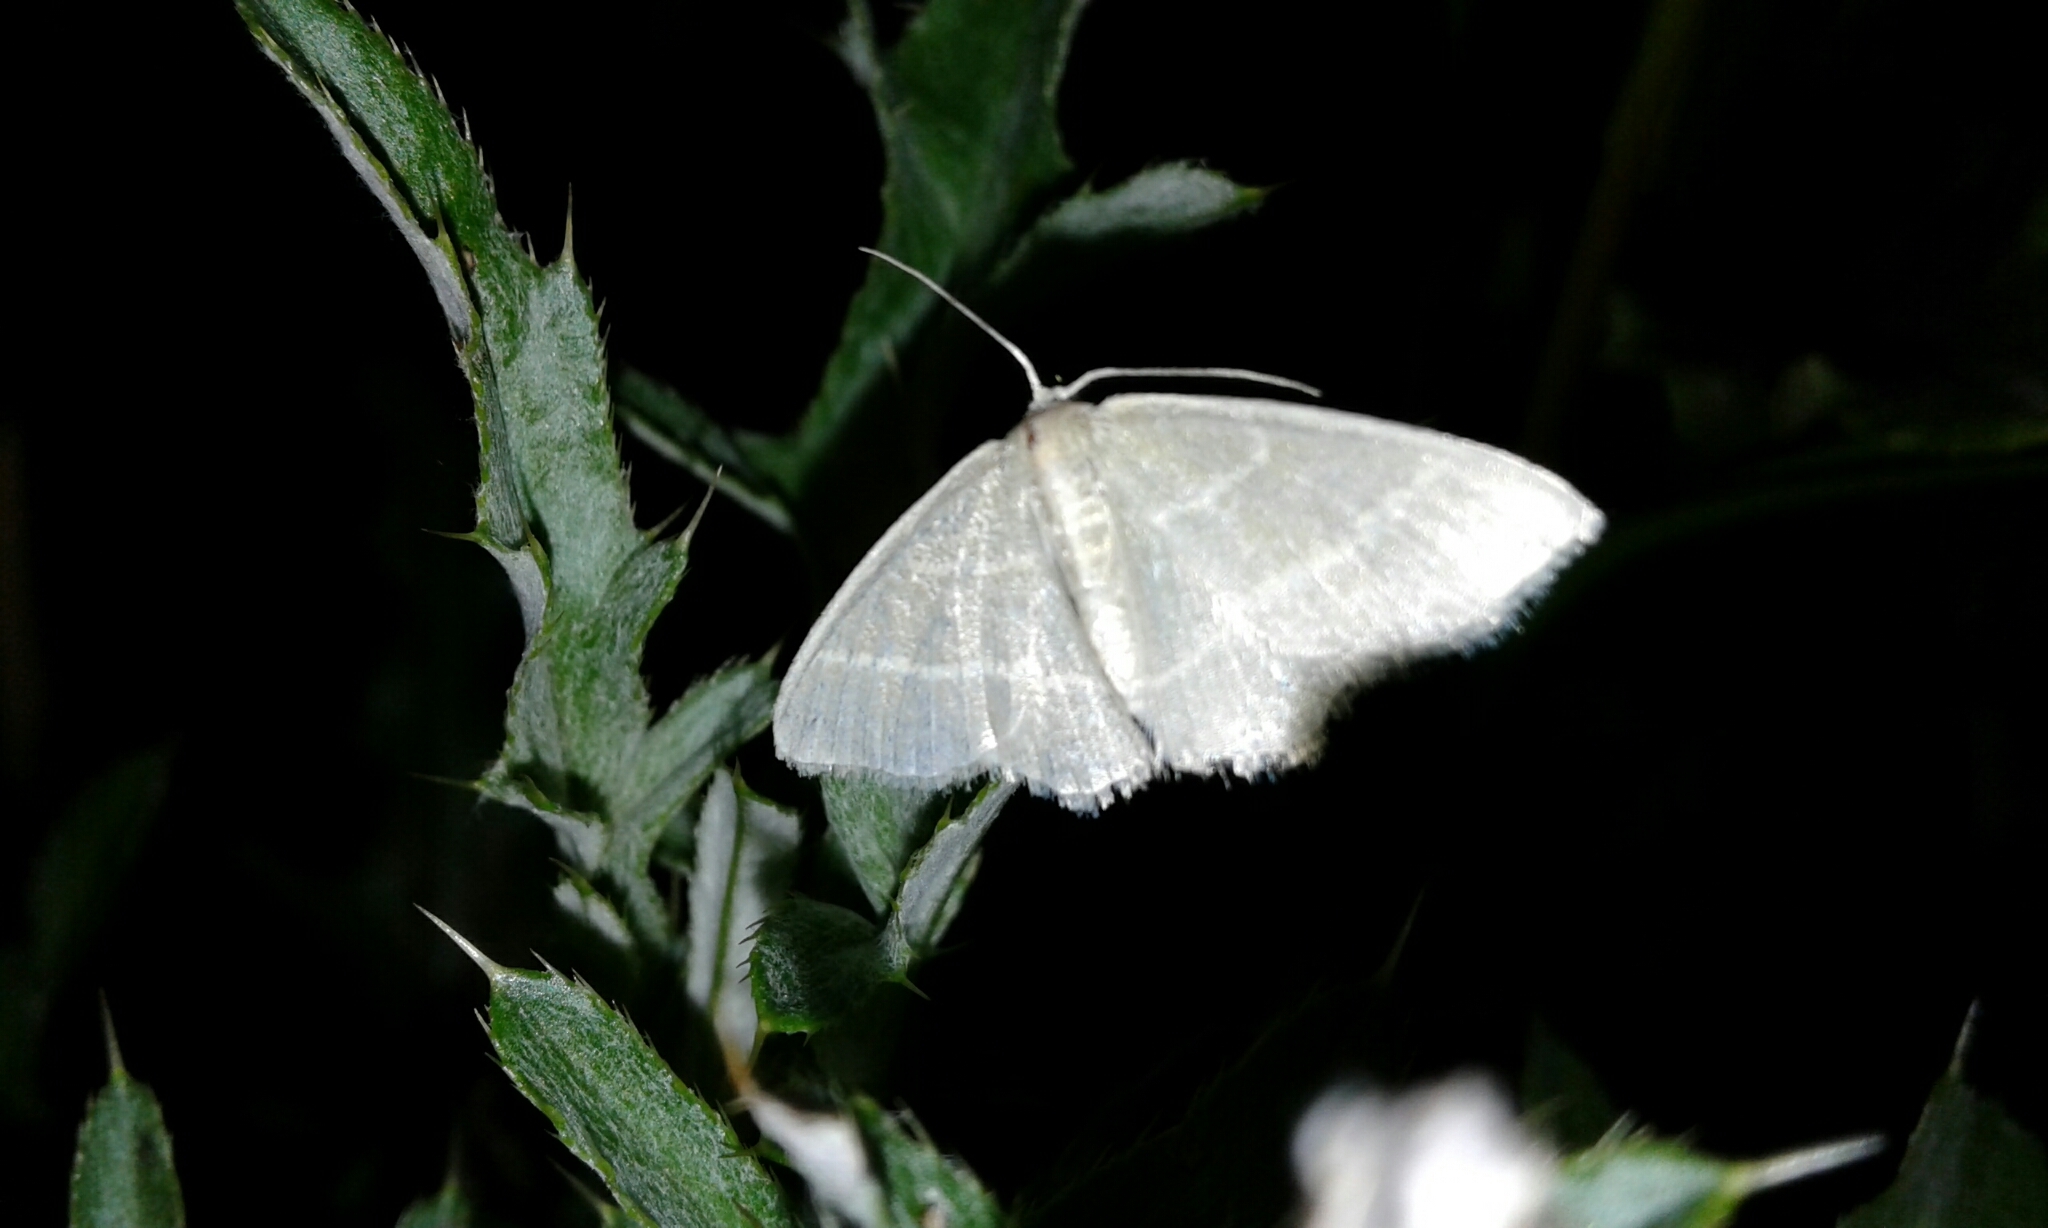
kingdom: Animalia
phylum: Arthropoda
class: Insecta
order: Lepidoptera
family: Geometridae
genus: Chlorochlamys
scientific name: Chlorochlamys chloroleucaria
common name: Blackberry looper
